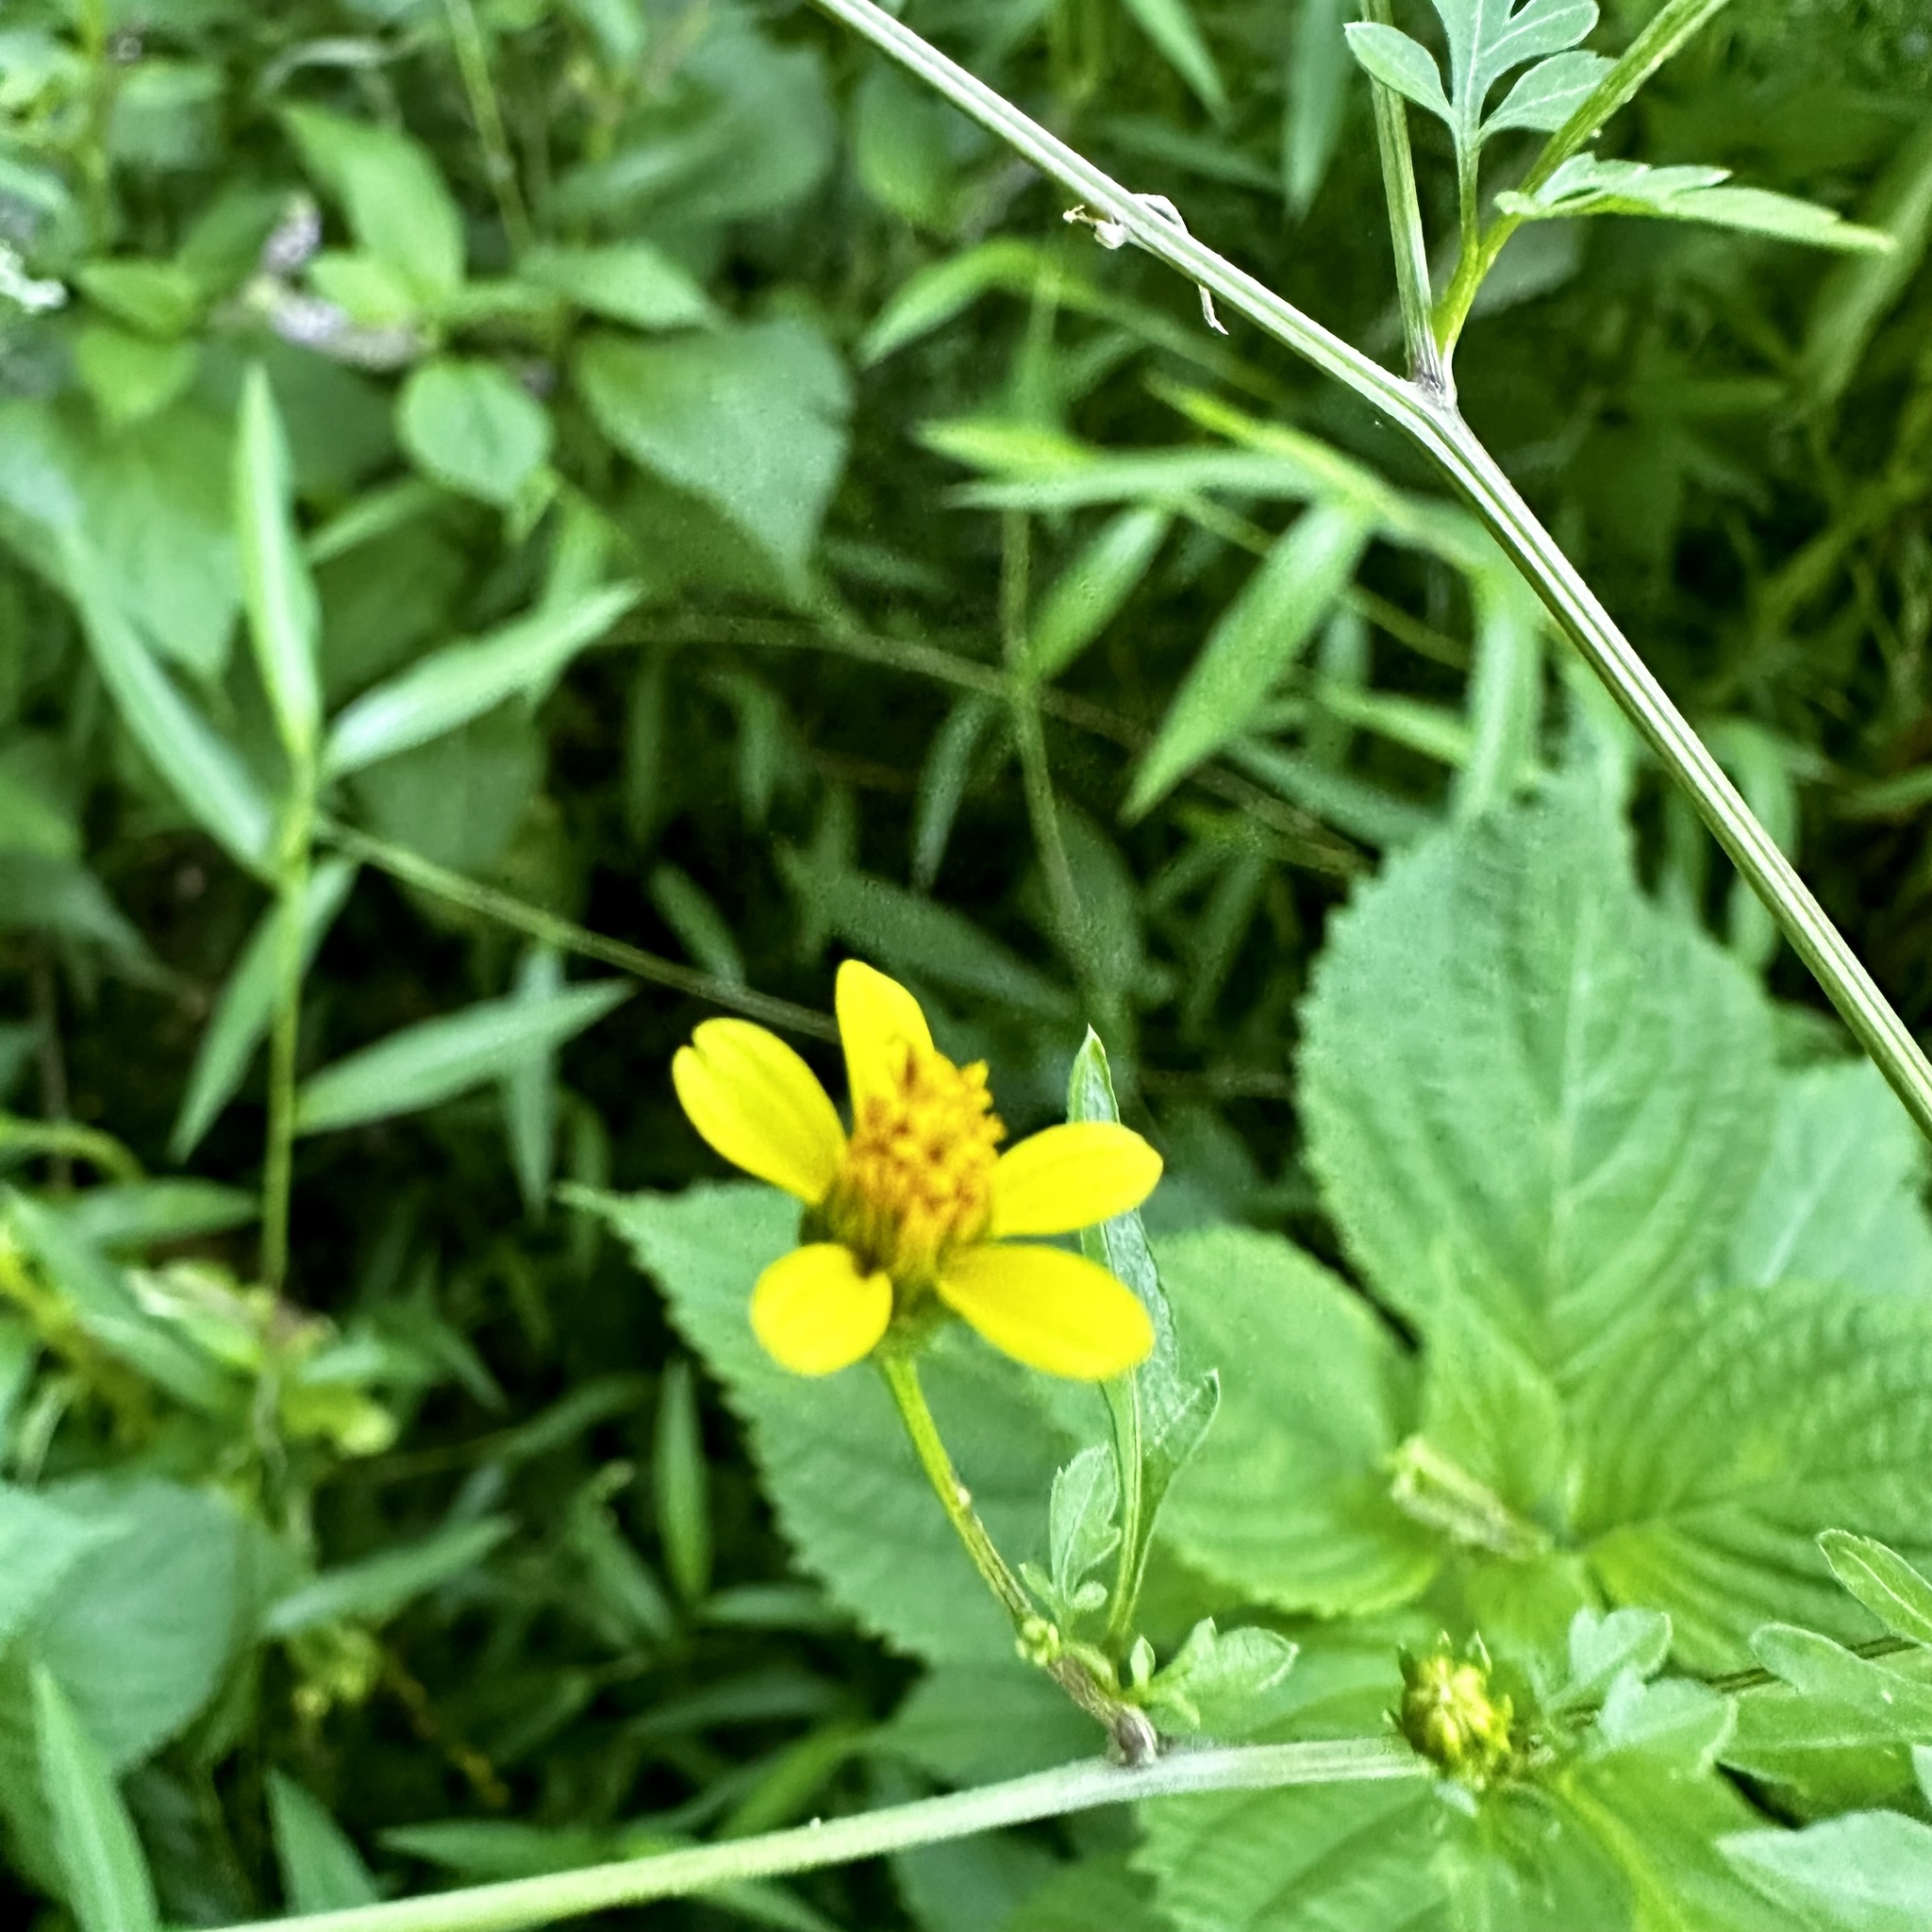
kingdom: Plantae
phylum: Tracheophyta
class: Magnoliopsida
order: Asterales
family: Asteraceae
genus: Bidens
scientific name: Bidens bipinnata
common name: Spanish-needles
